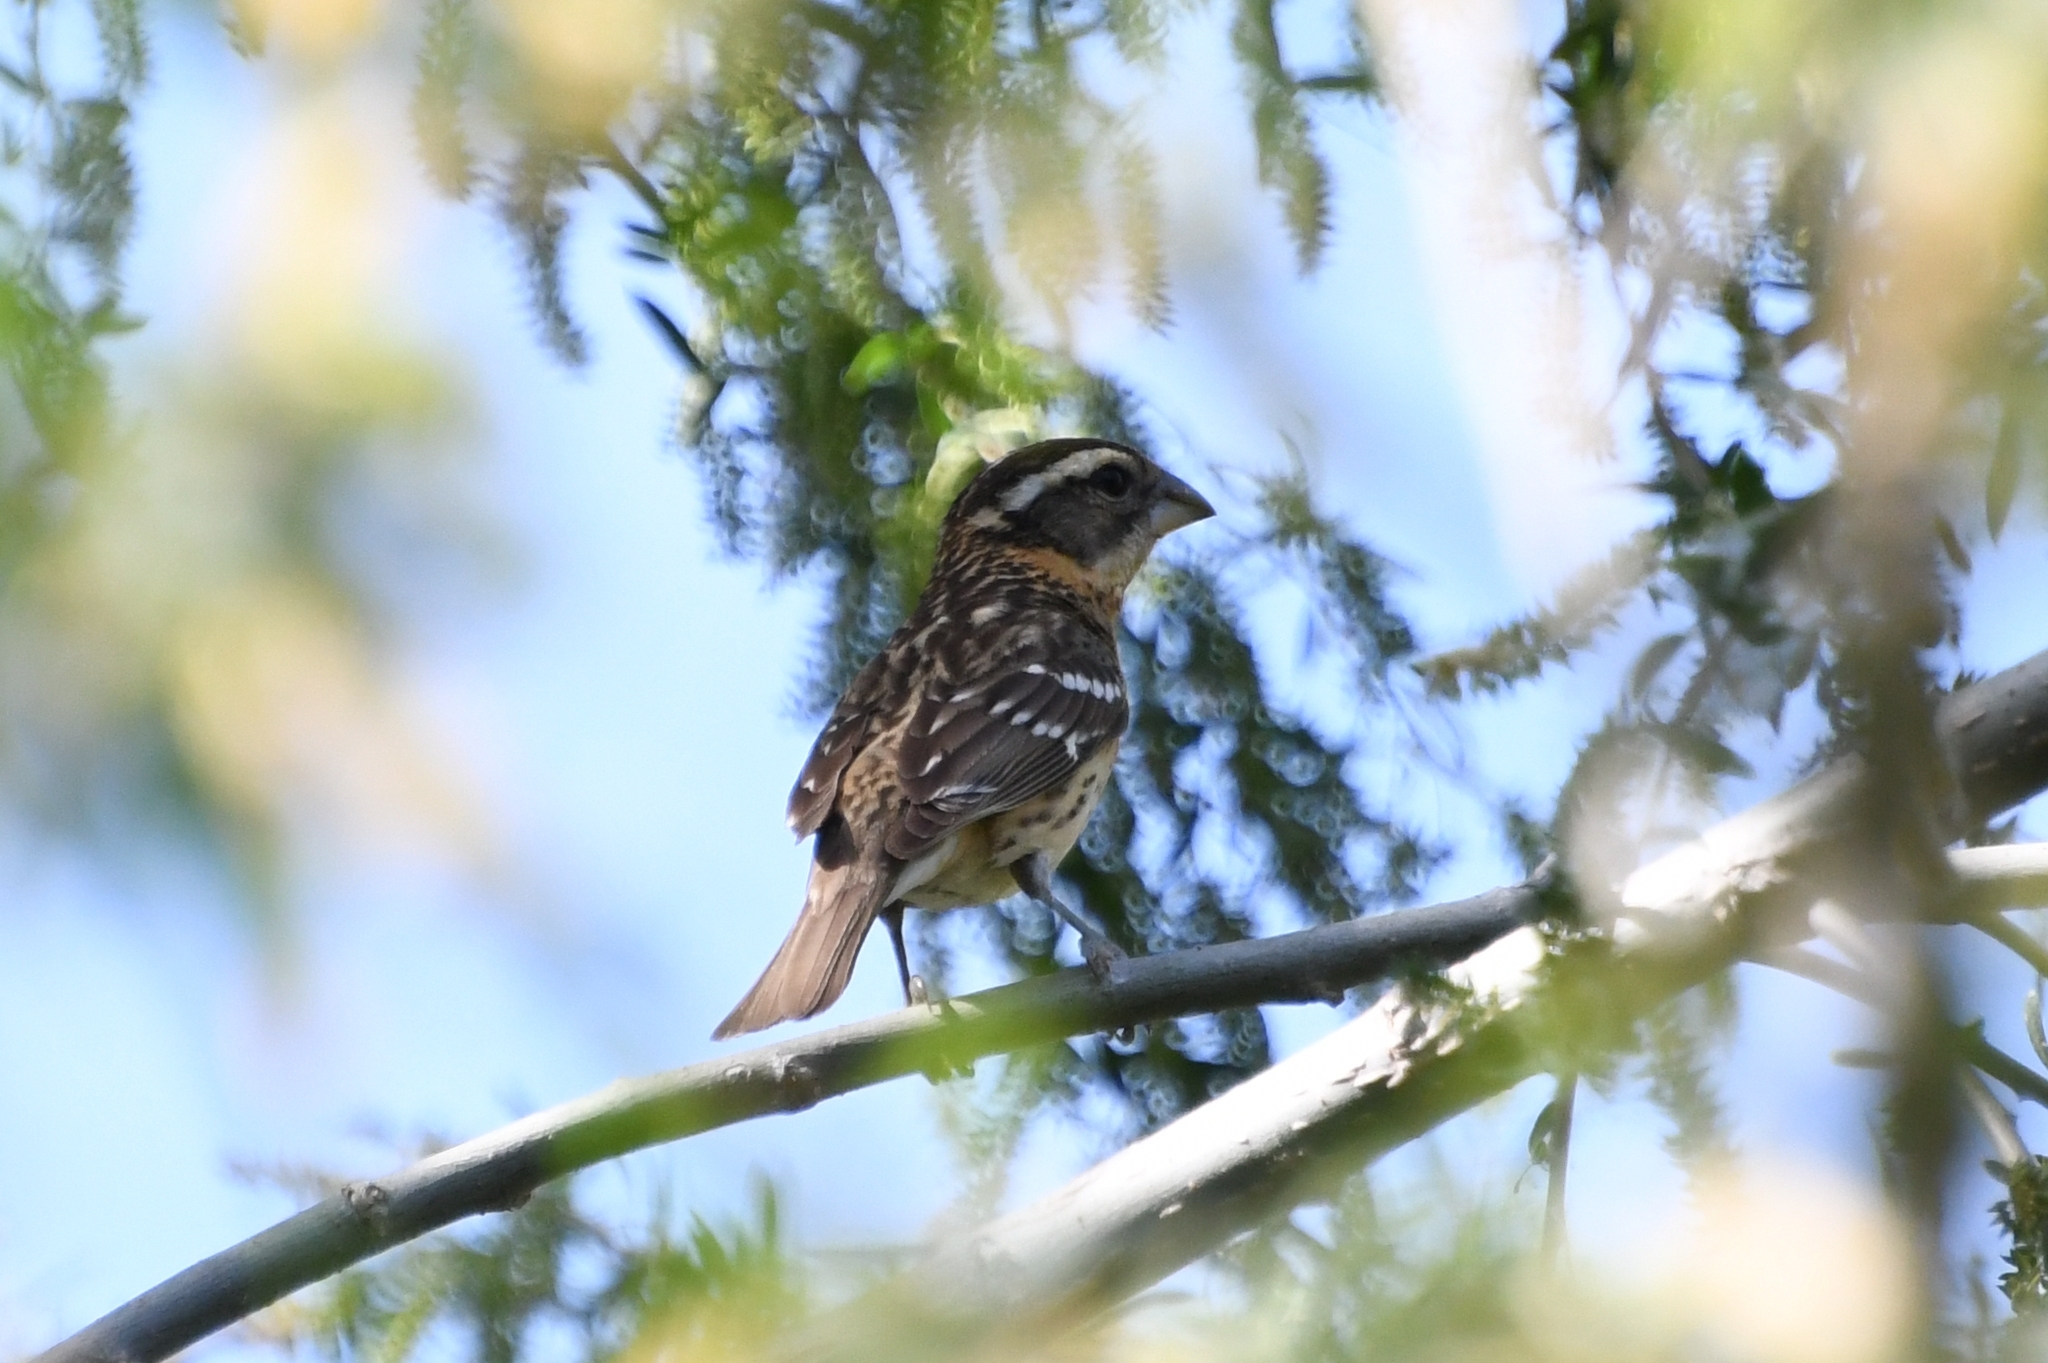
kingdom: Animalia
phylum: Chordata
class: Aves
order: Passeriformes
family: Cardinalidae
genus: Pheucticus
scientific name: Pheucticus melanocephalus
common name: Black-headed grosbeak
